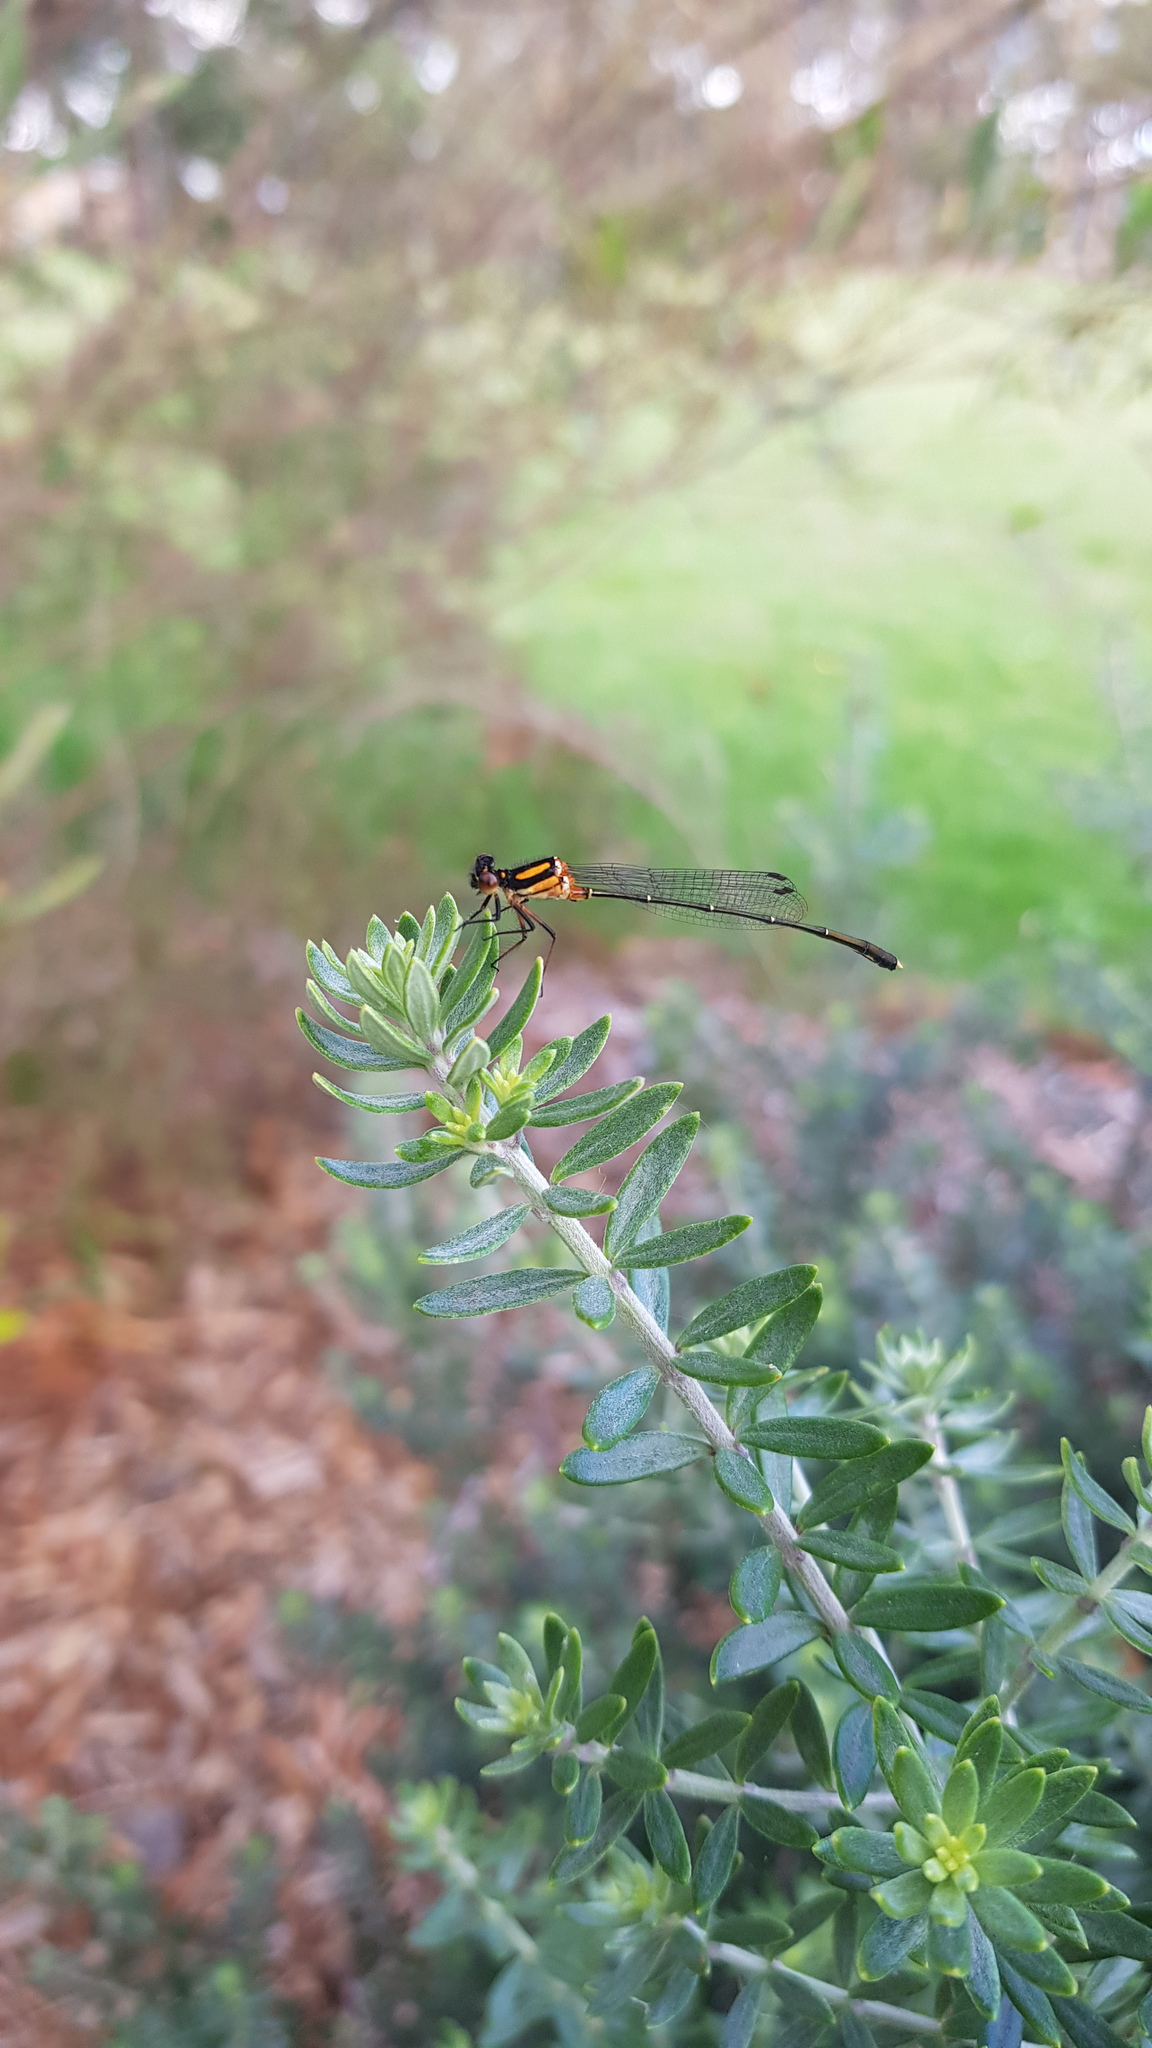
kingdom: Animalia
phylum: Arthropoda
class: Insecta
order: Odonata
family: Platycnemididae
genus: Nososticta
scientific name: Nososticta solida
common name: Orange threadtail
